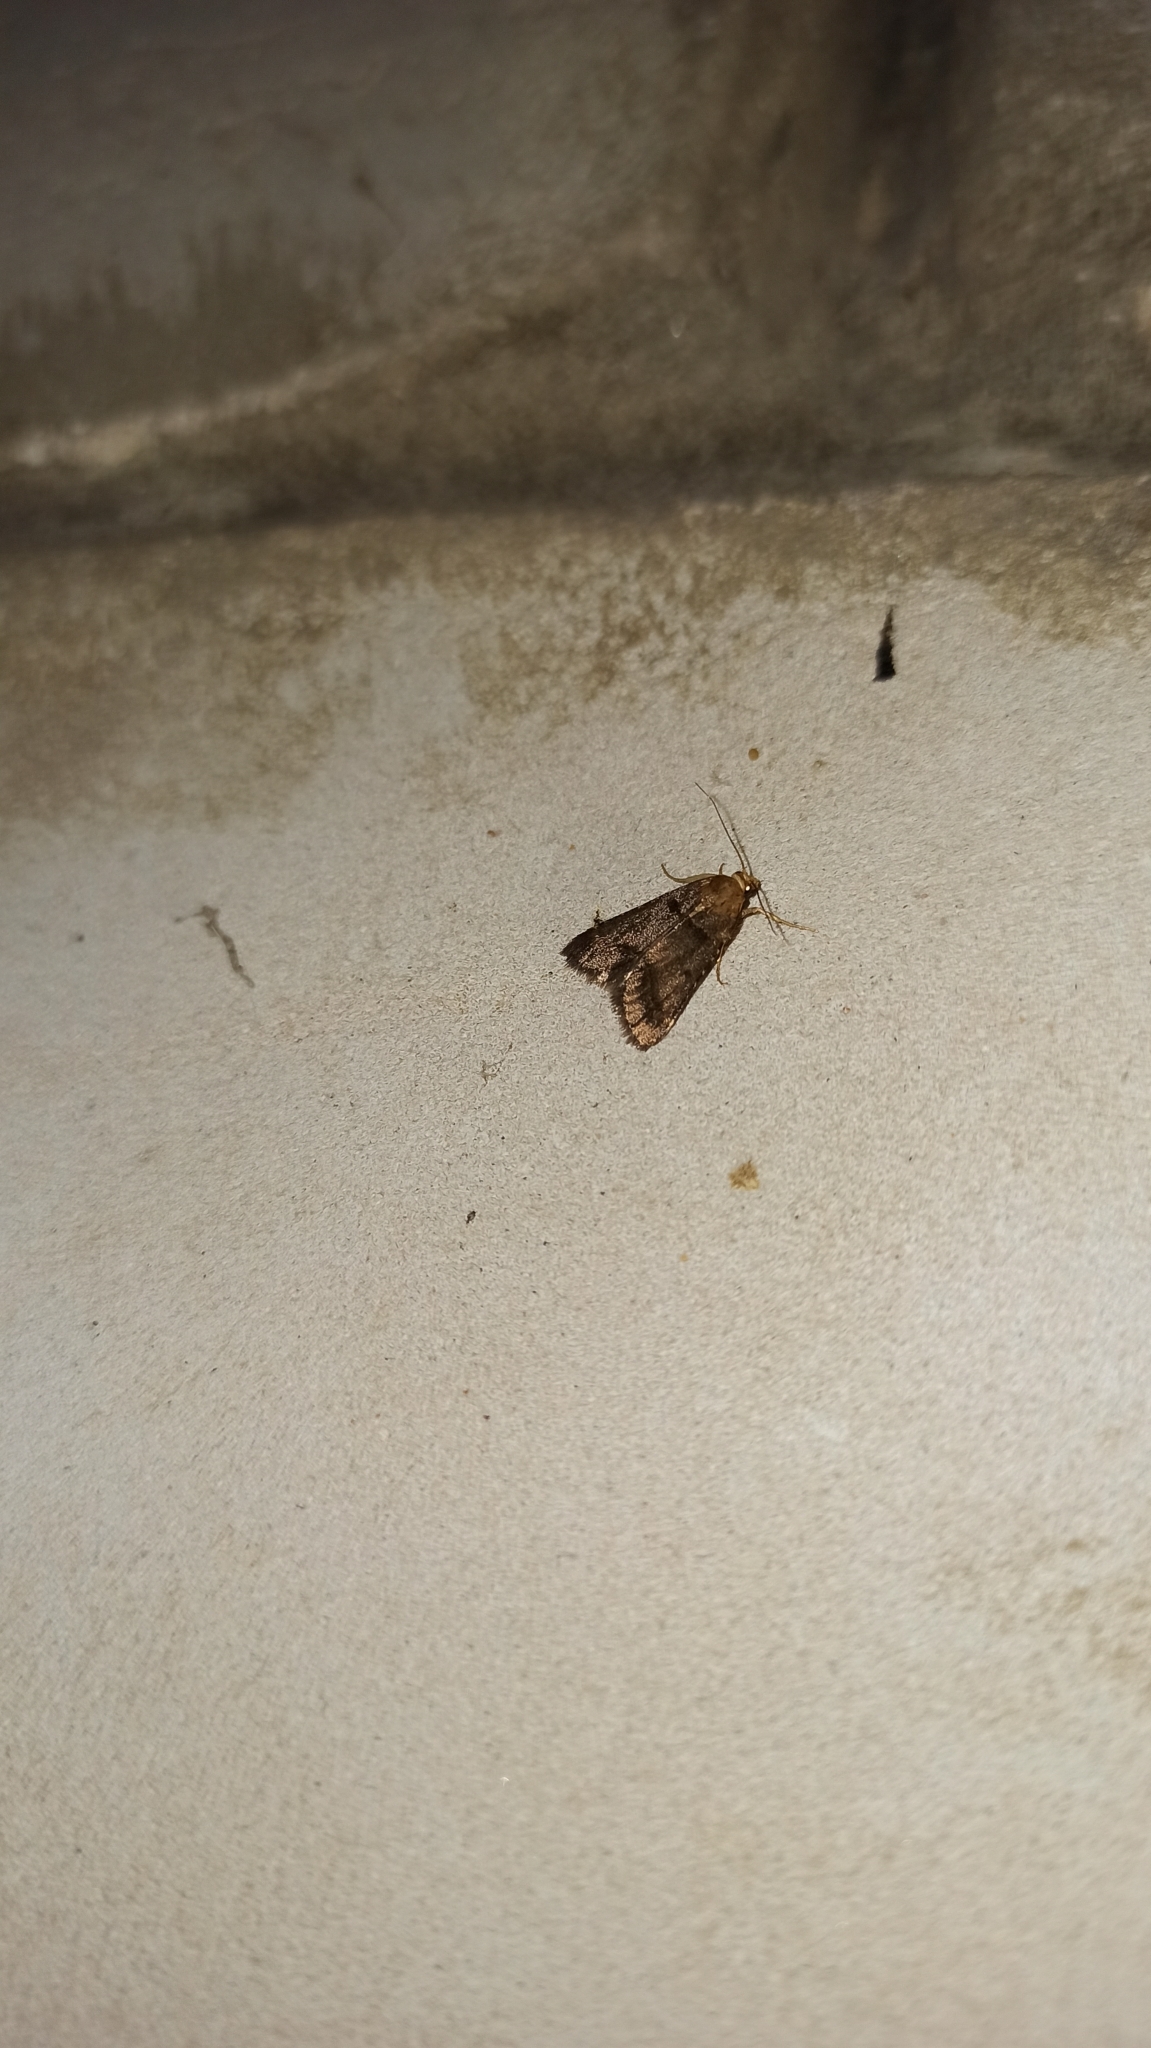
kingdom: Animalia
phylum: Arthropoda
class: Insecta
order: Lepidoptera
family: Pyralidae
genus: Stemmatophora
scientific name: Stemmatophora brunnealis
